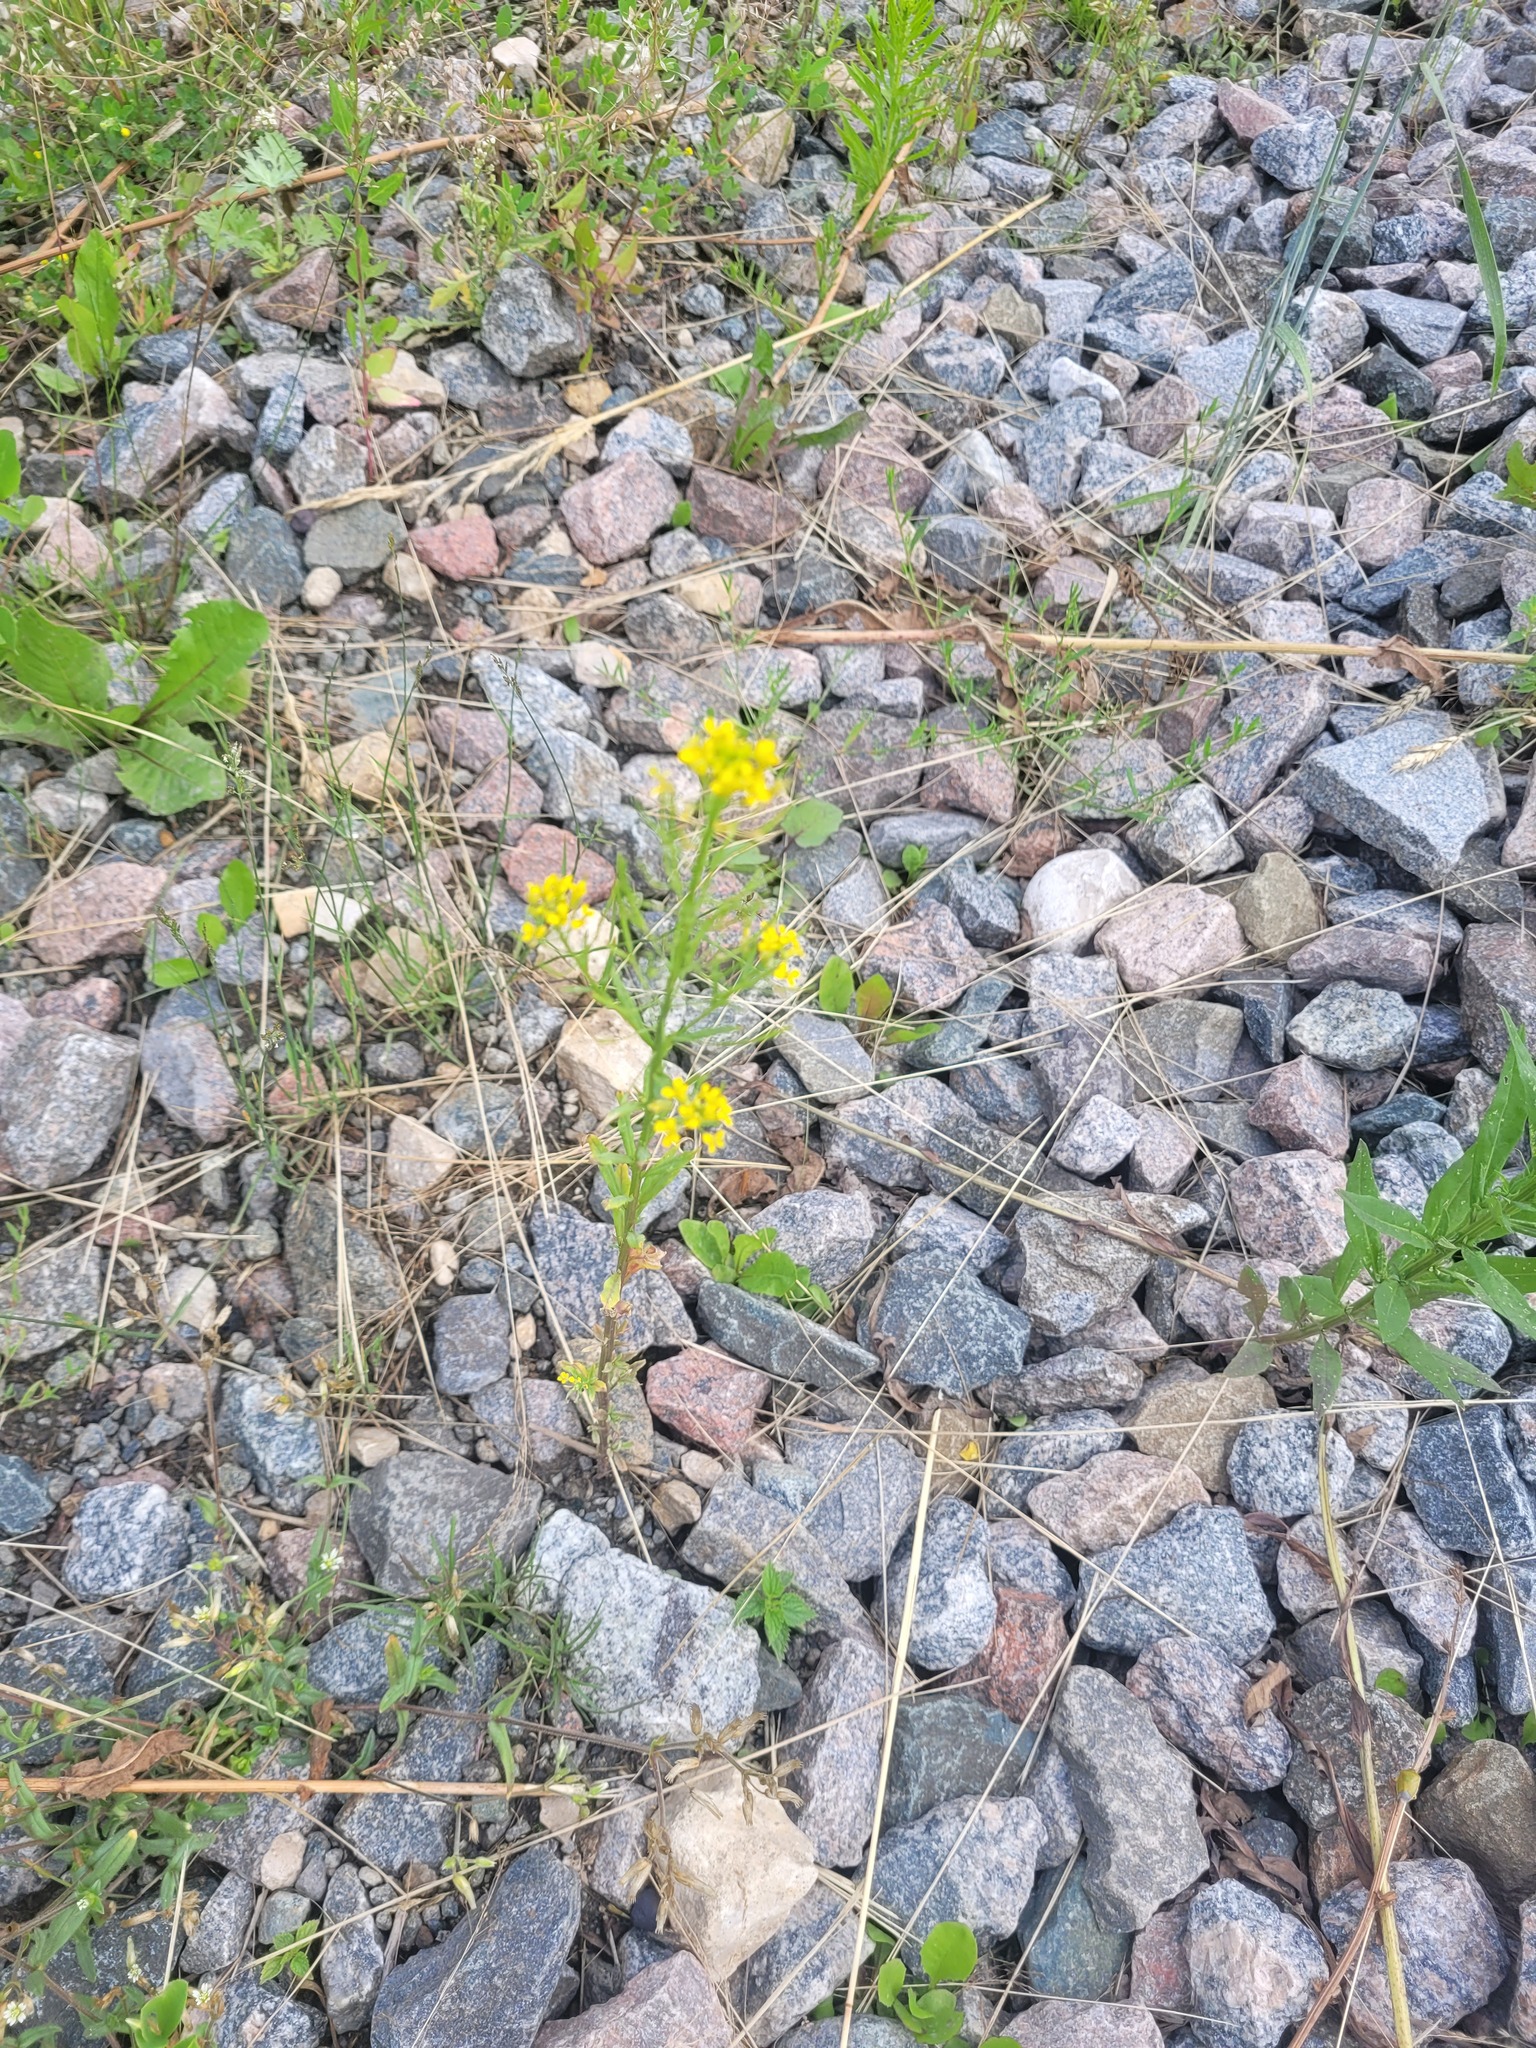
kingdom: Plantae
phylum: Tracheophyta
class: Magnoliopsida
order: Brassicales
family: Brassicaceae
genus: Erysimum
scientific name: Erysimum cheiranthoides
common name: Treacle mustard
